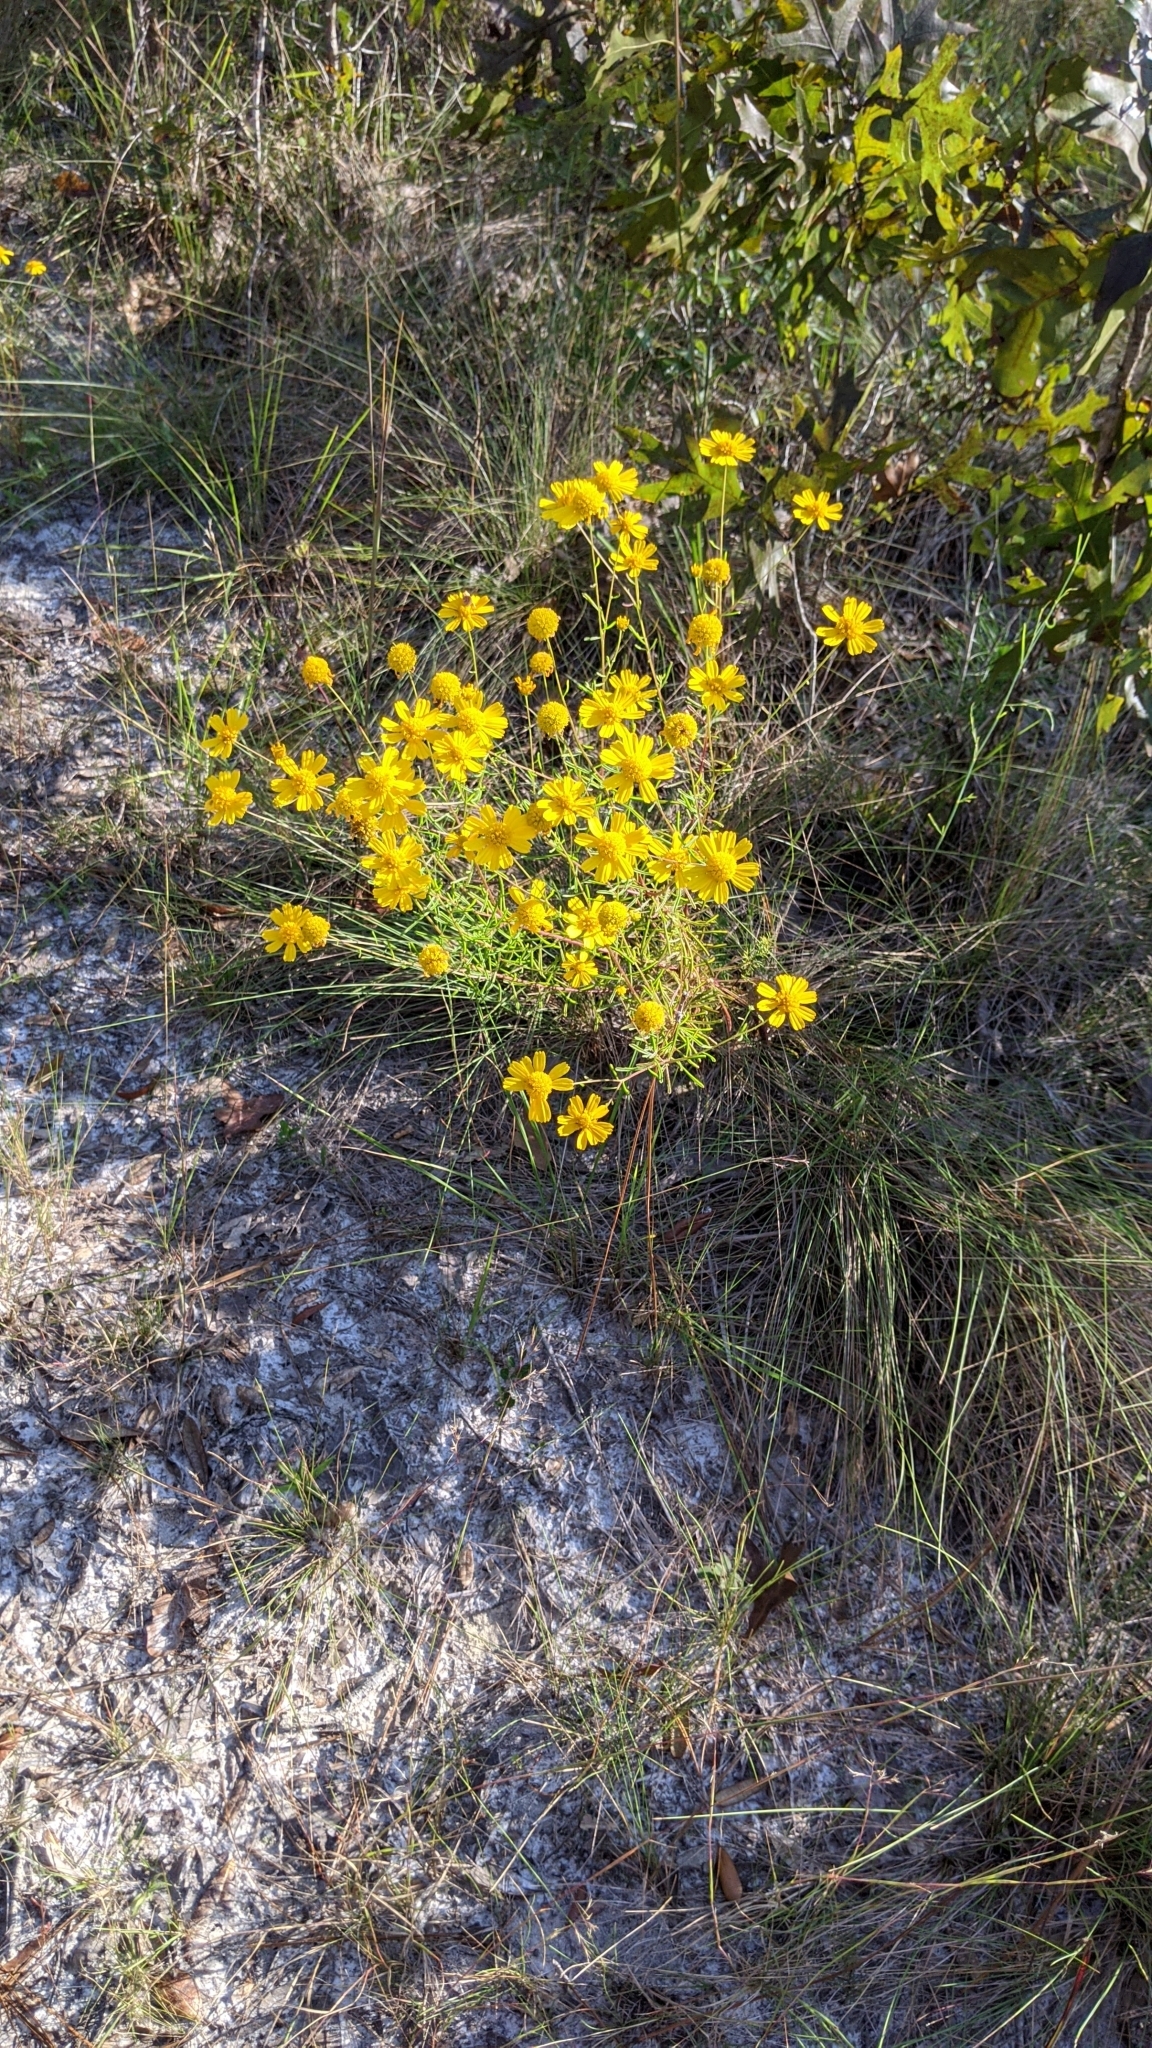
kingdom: Plantae
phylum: Tracheophyta
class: Magnoliopsida
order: Asterales
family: Asteraceae
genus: Balduina
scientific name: Balduina angustifolia
